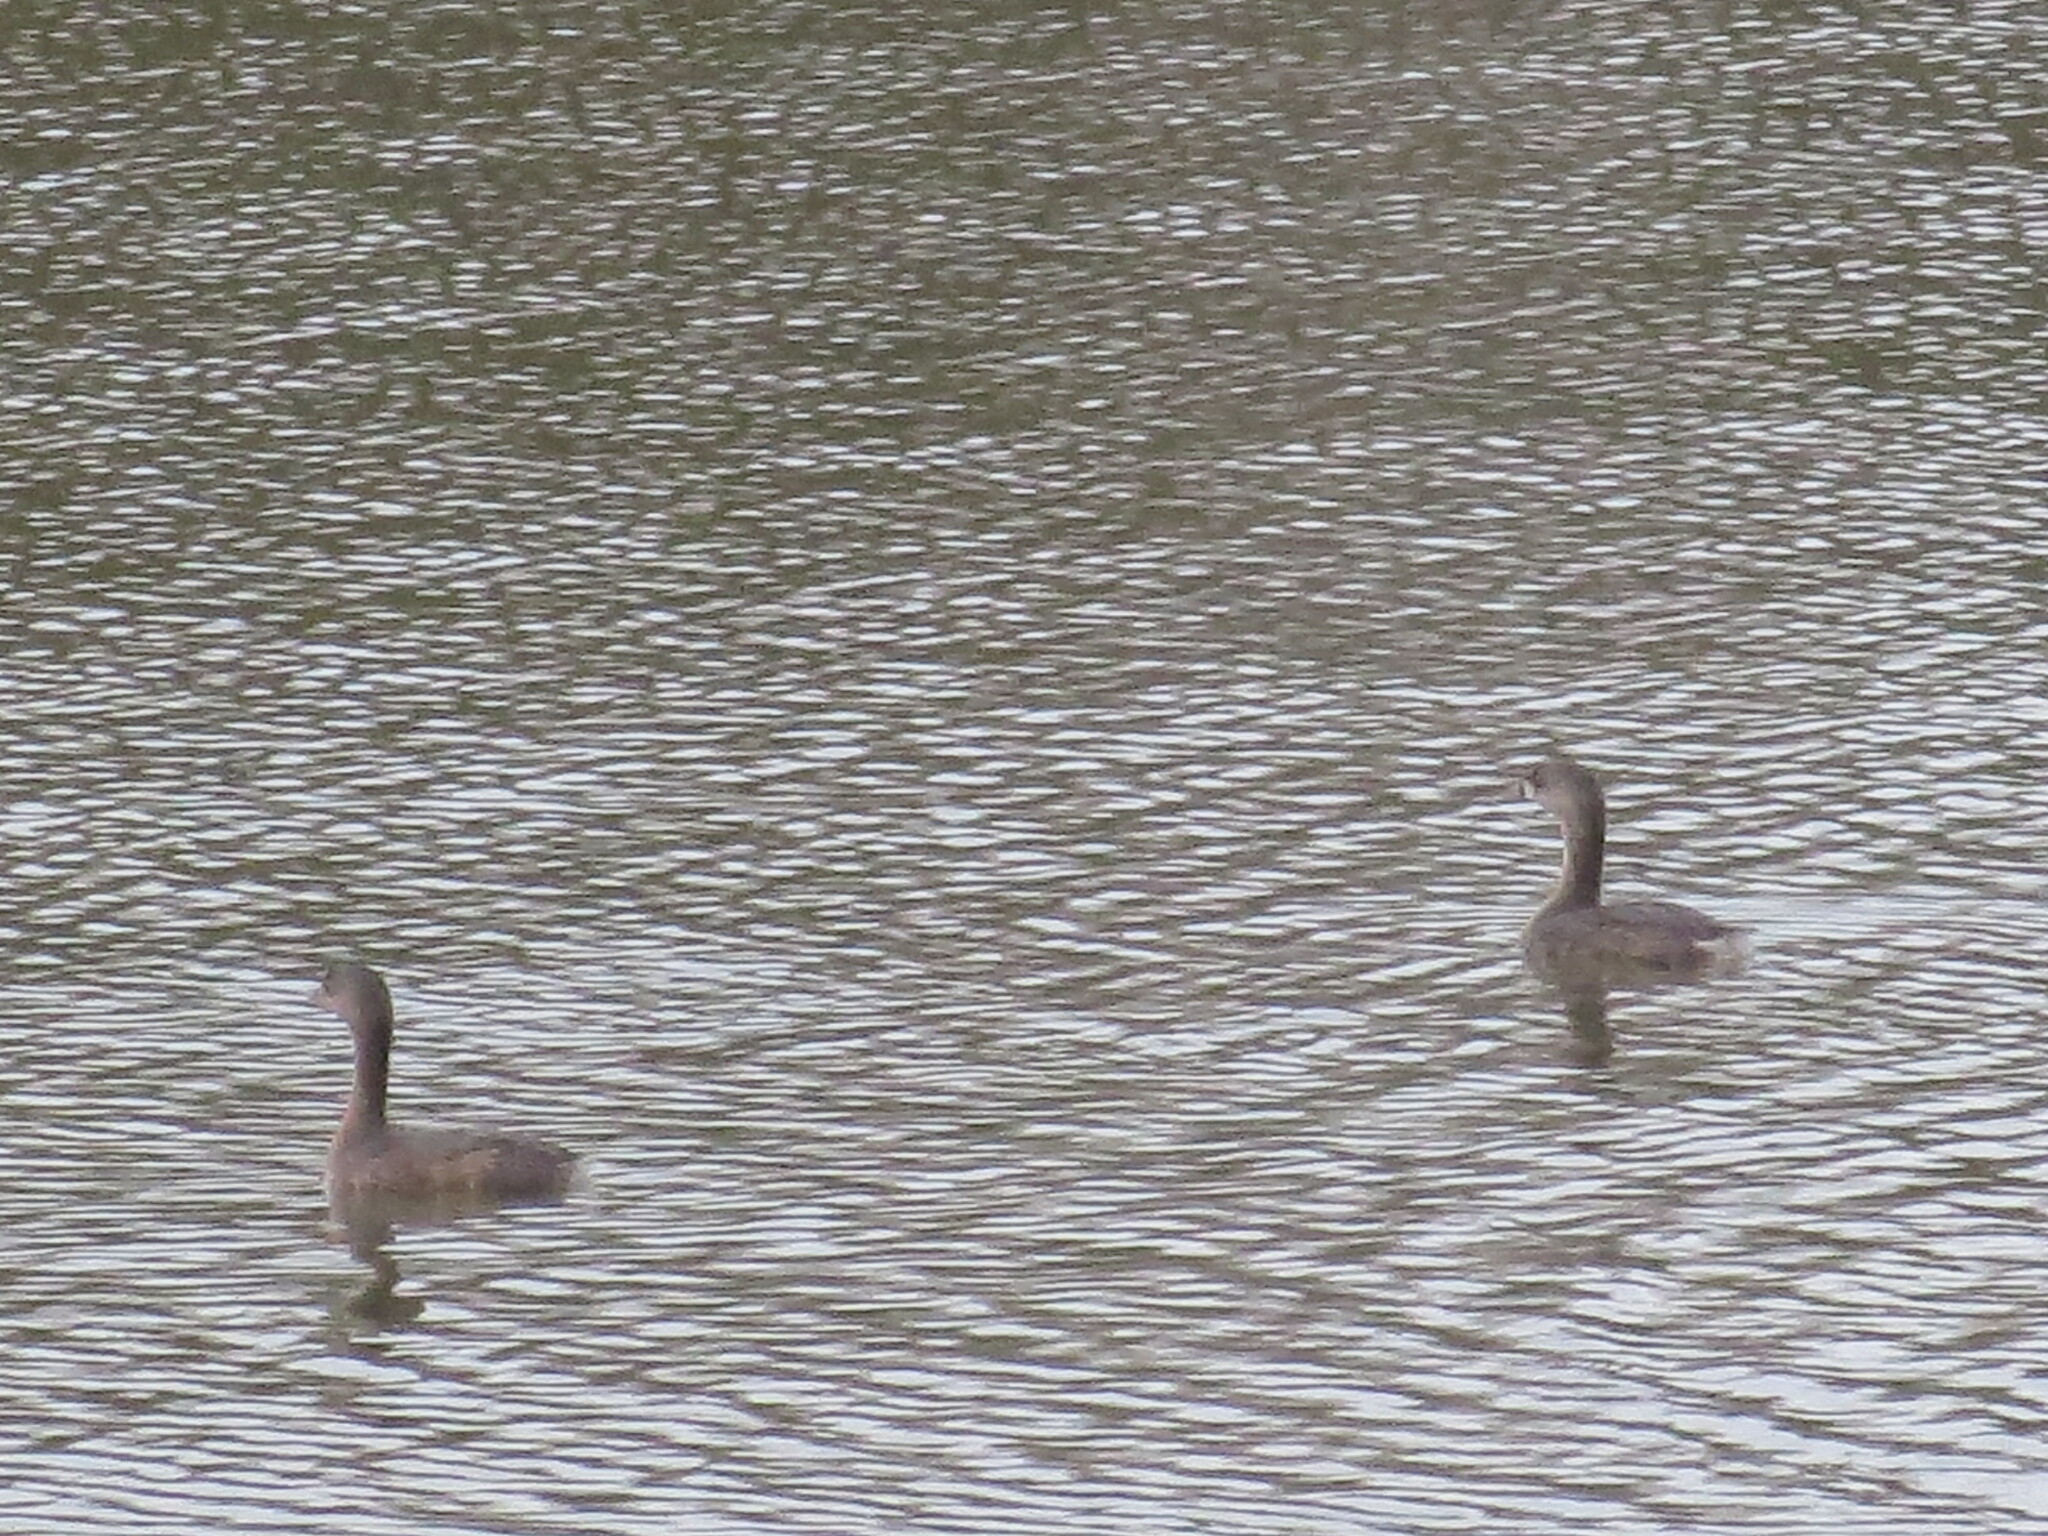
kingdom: Animalia
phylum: Chordata
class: Aves
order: Podicipediformes
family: Podicipedidae
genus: Podilymbus
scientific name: Podilymbus podiceps
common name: Pied-billed grebe
